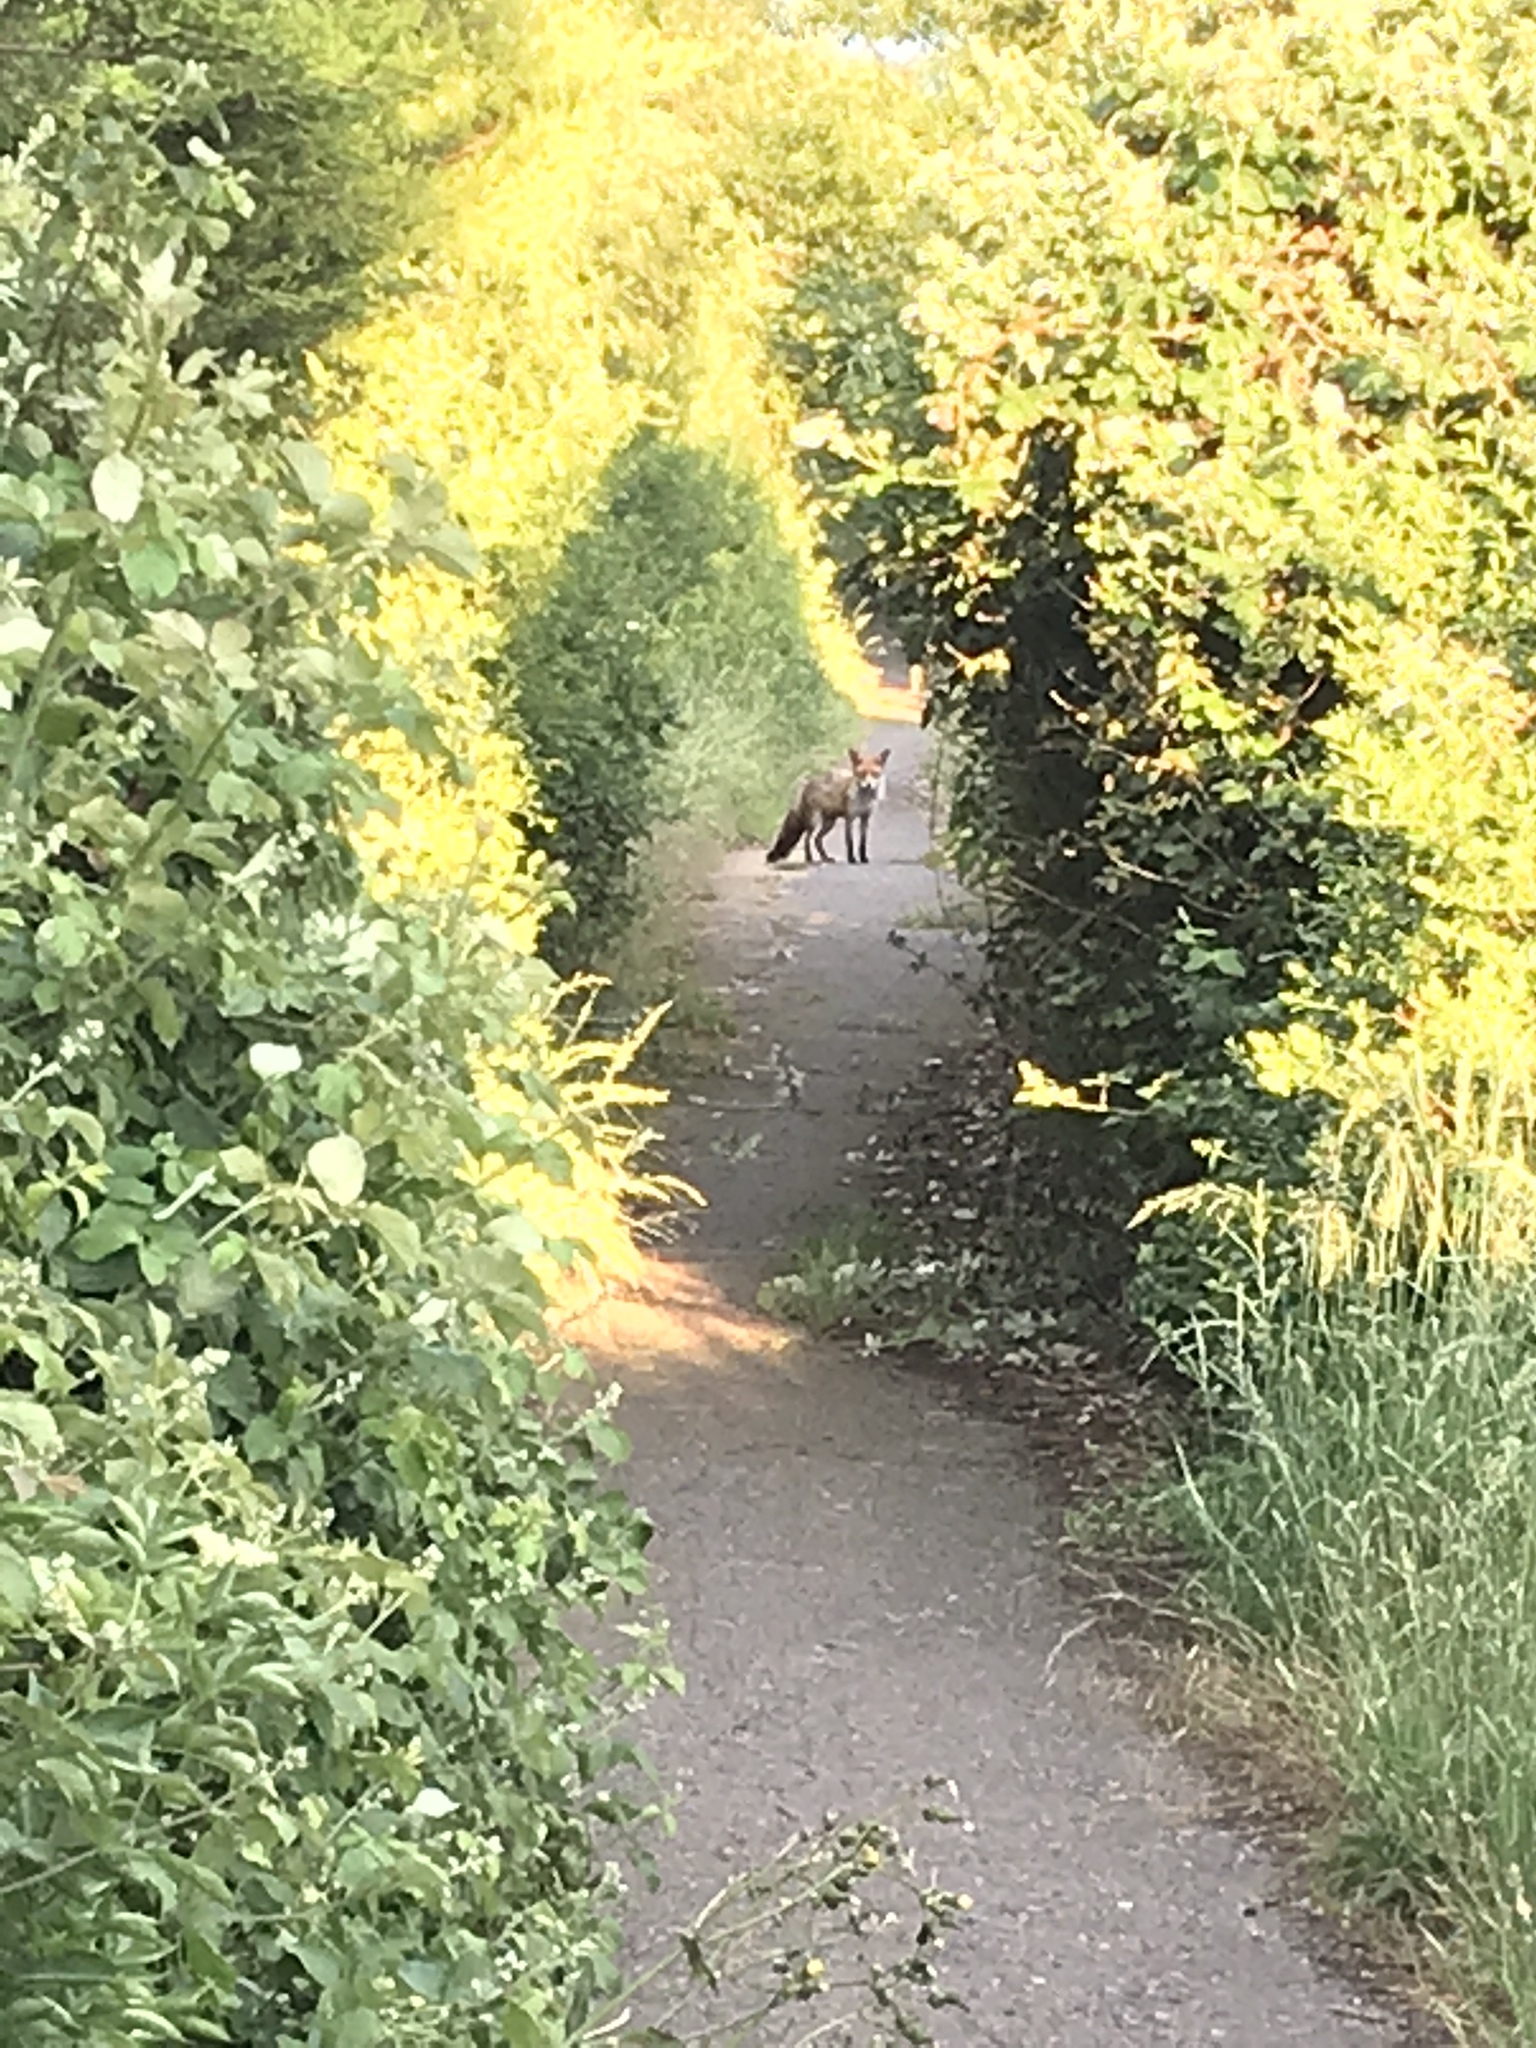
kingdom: Animalia
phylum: Chordata
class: Mammalia
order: Carnivora
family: Canidae
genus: Vulpes
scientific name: Vulpes vulpes
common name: Red fox
